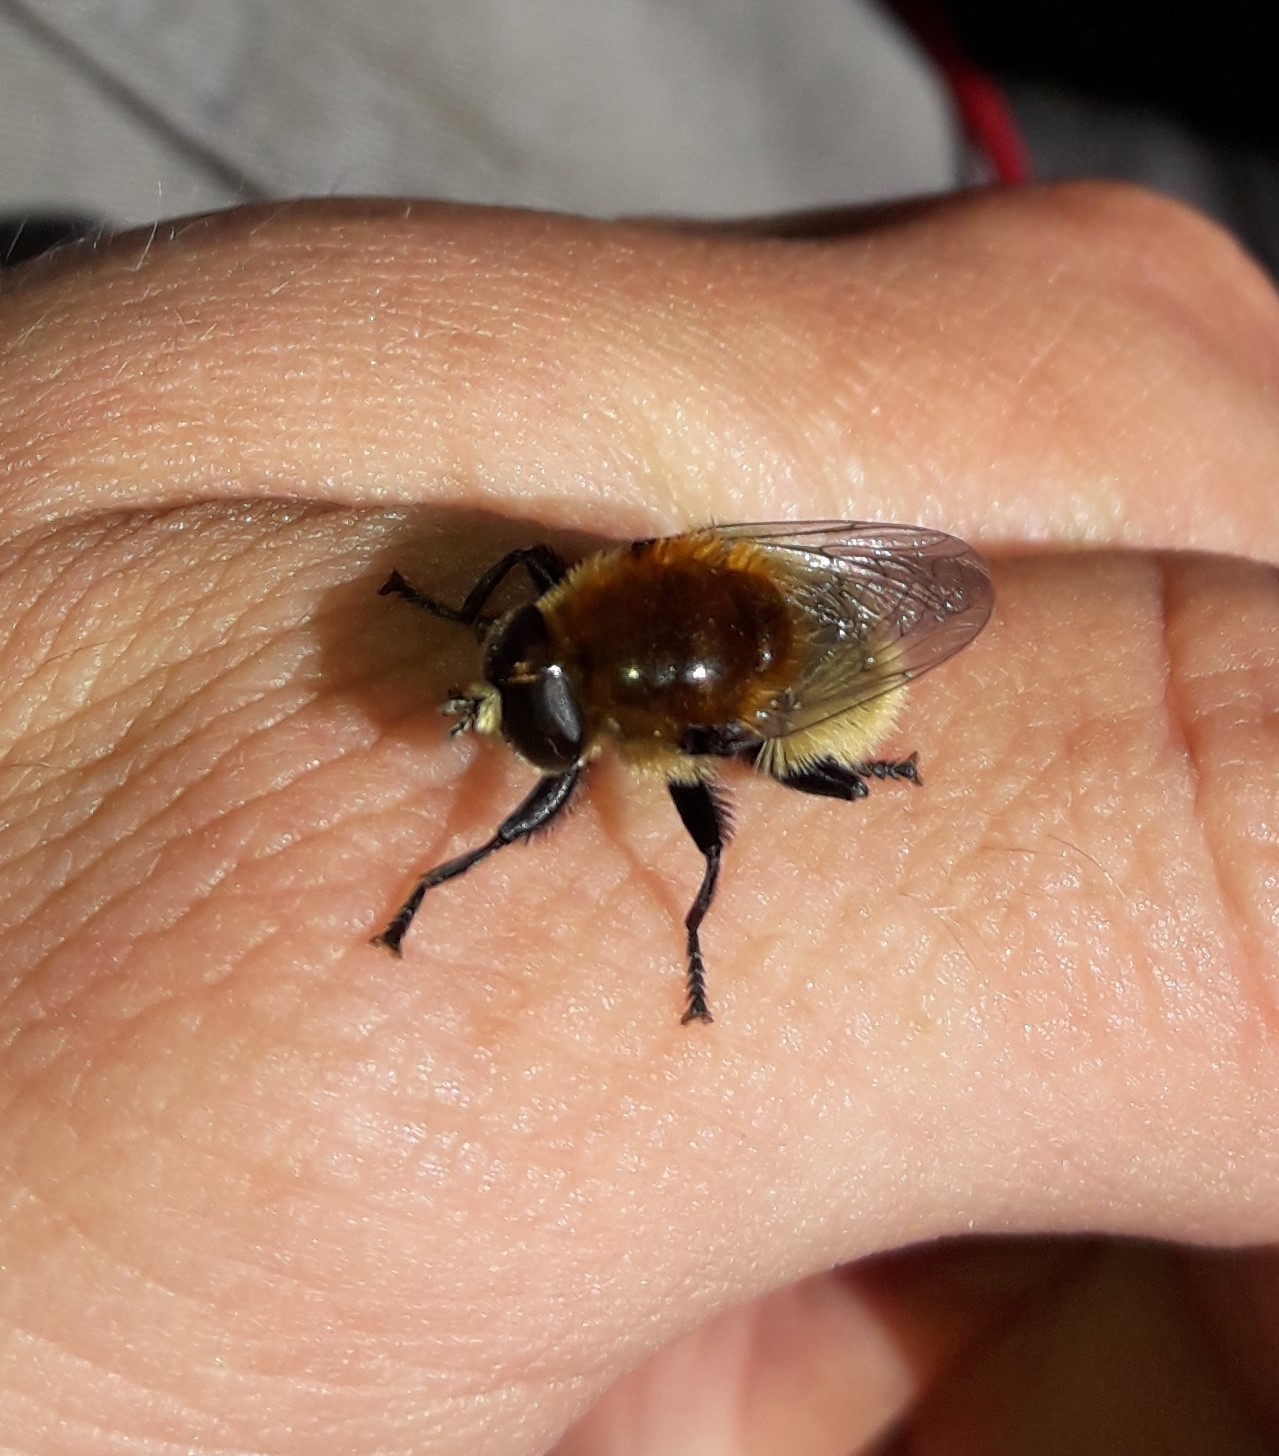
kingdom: Animalia
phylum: Arthropoda
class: Insecta
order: Diptera
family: Syrphidae
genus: Merodon
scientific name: Merodon equestris
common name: Greater bulb-fly
